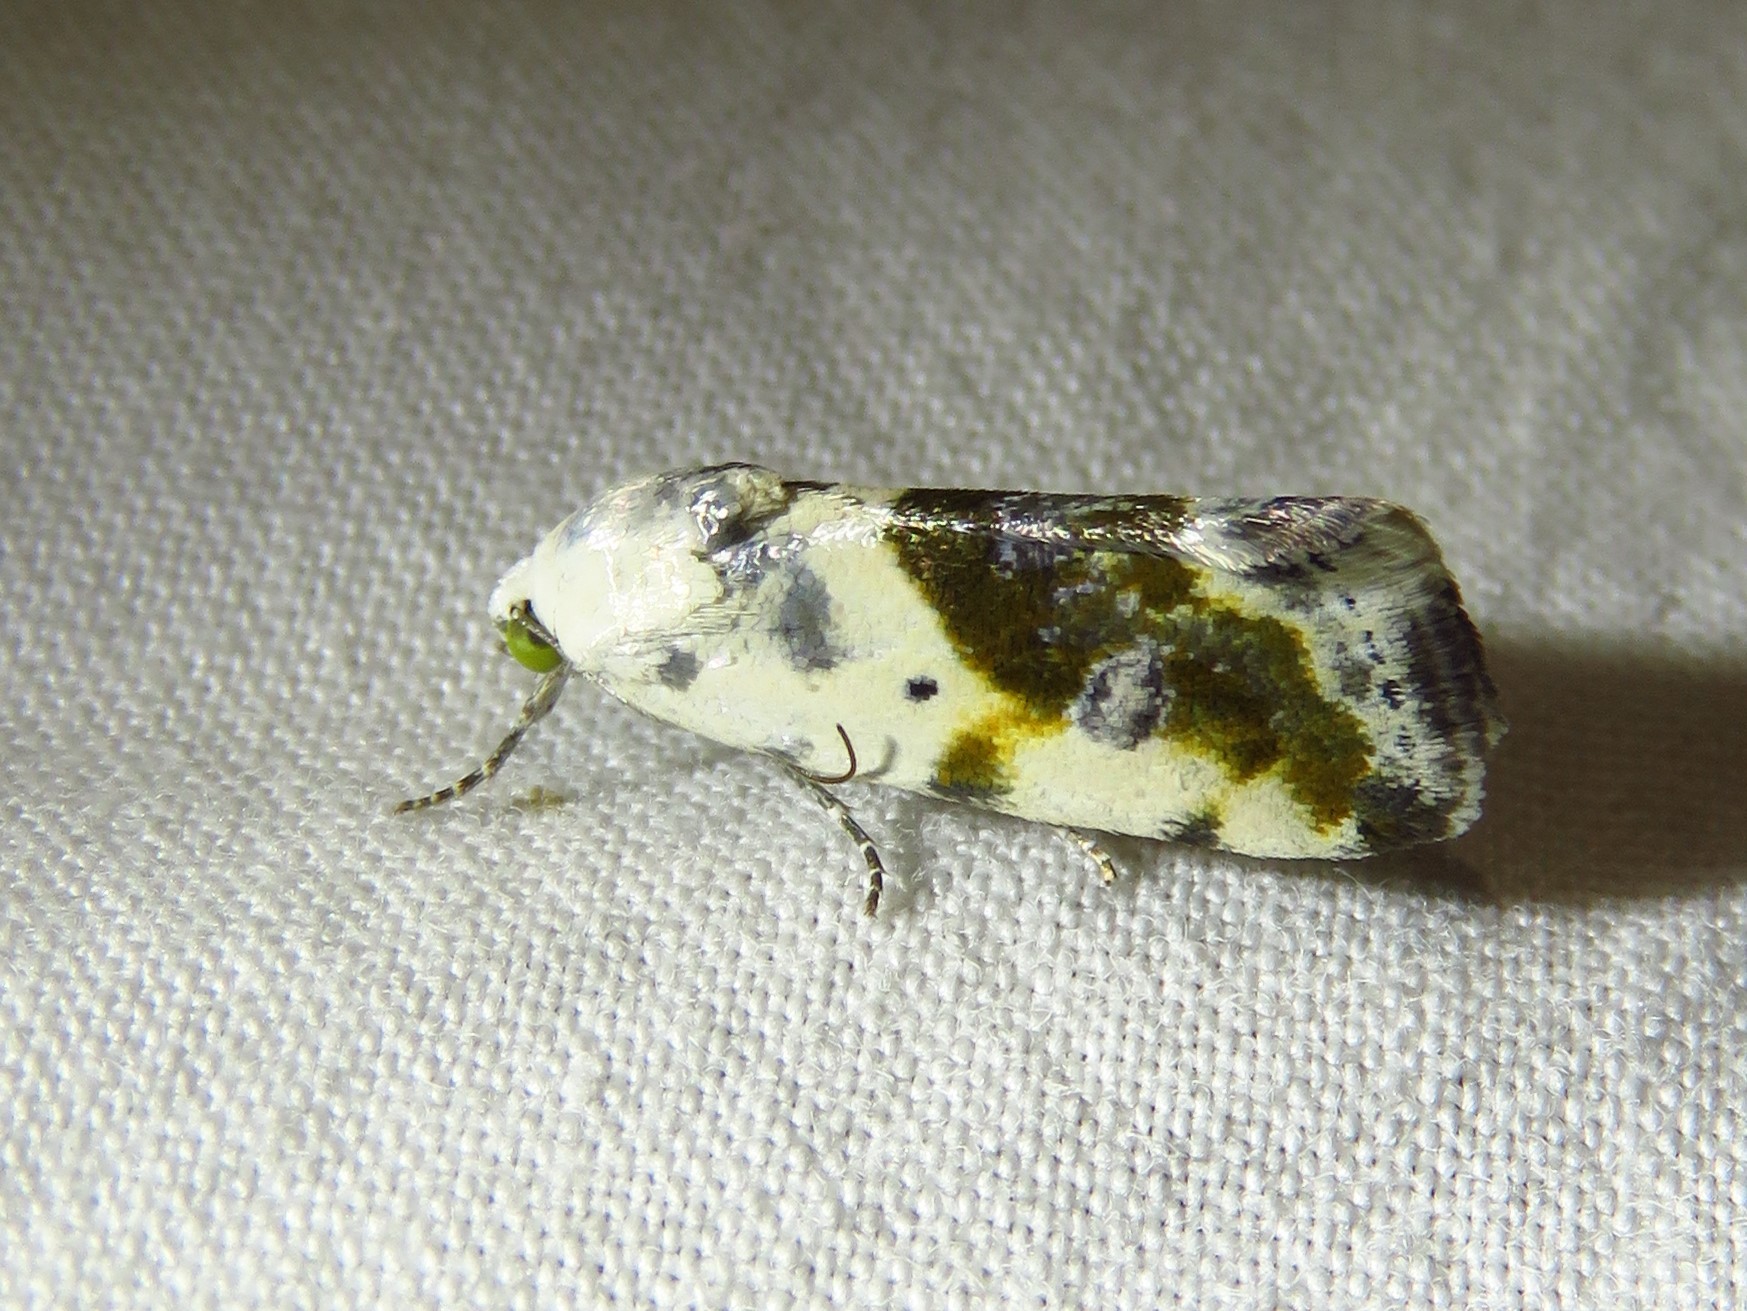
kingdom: Animalia
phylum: Arthropoda
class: Insecta
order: Lepidoptera
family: Noctuidae
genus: Acontia
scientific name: Acontia candefacta
